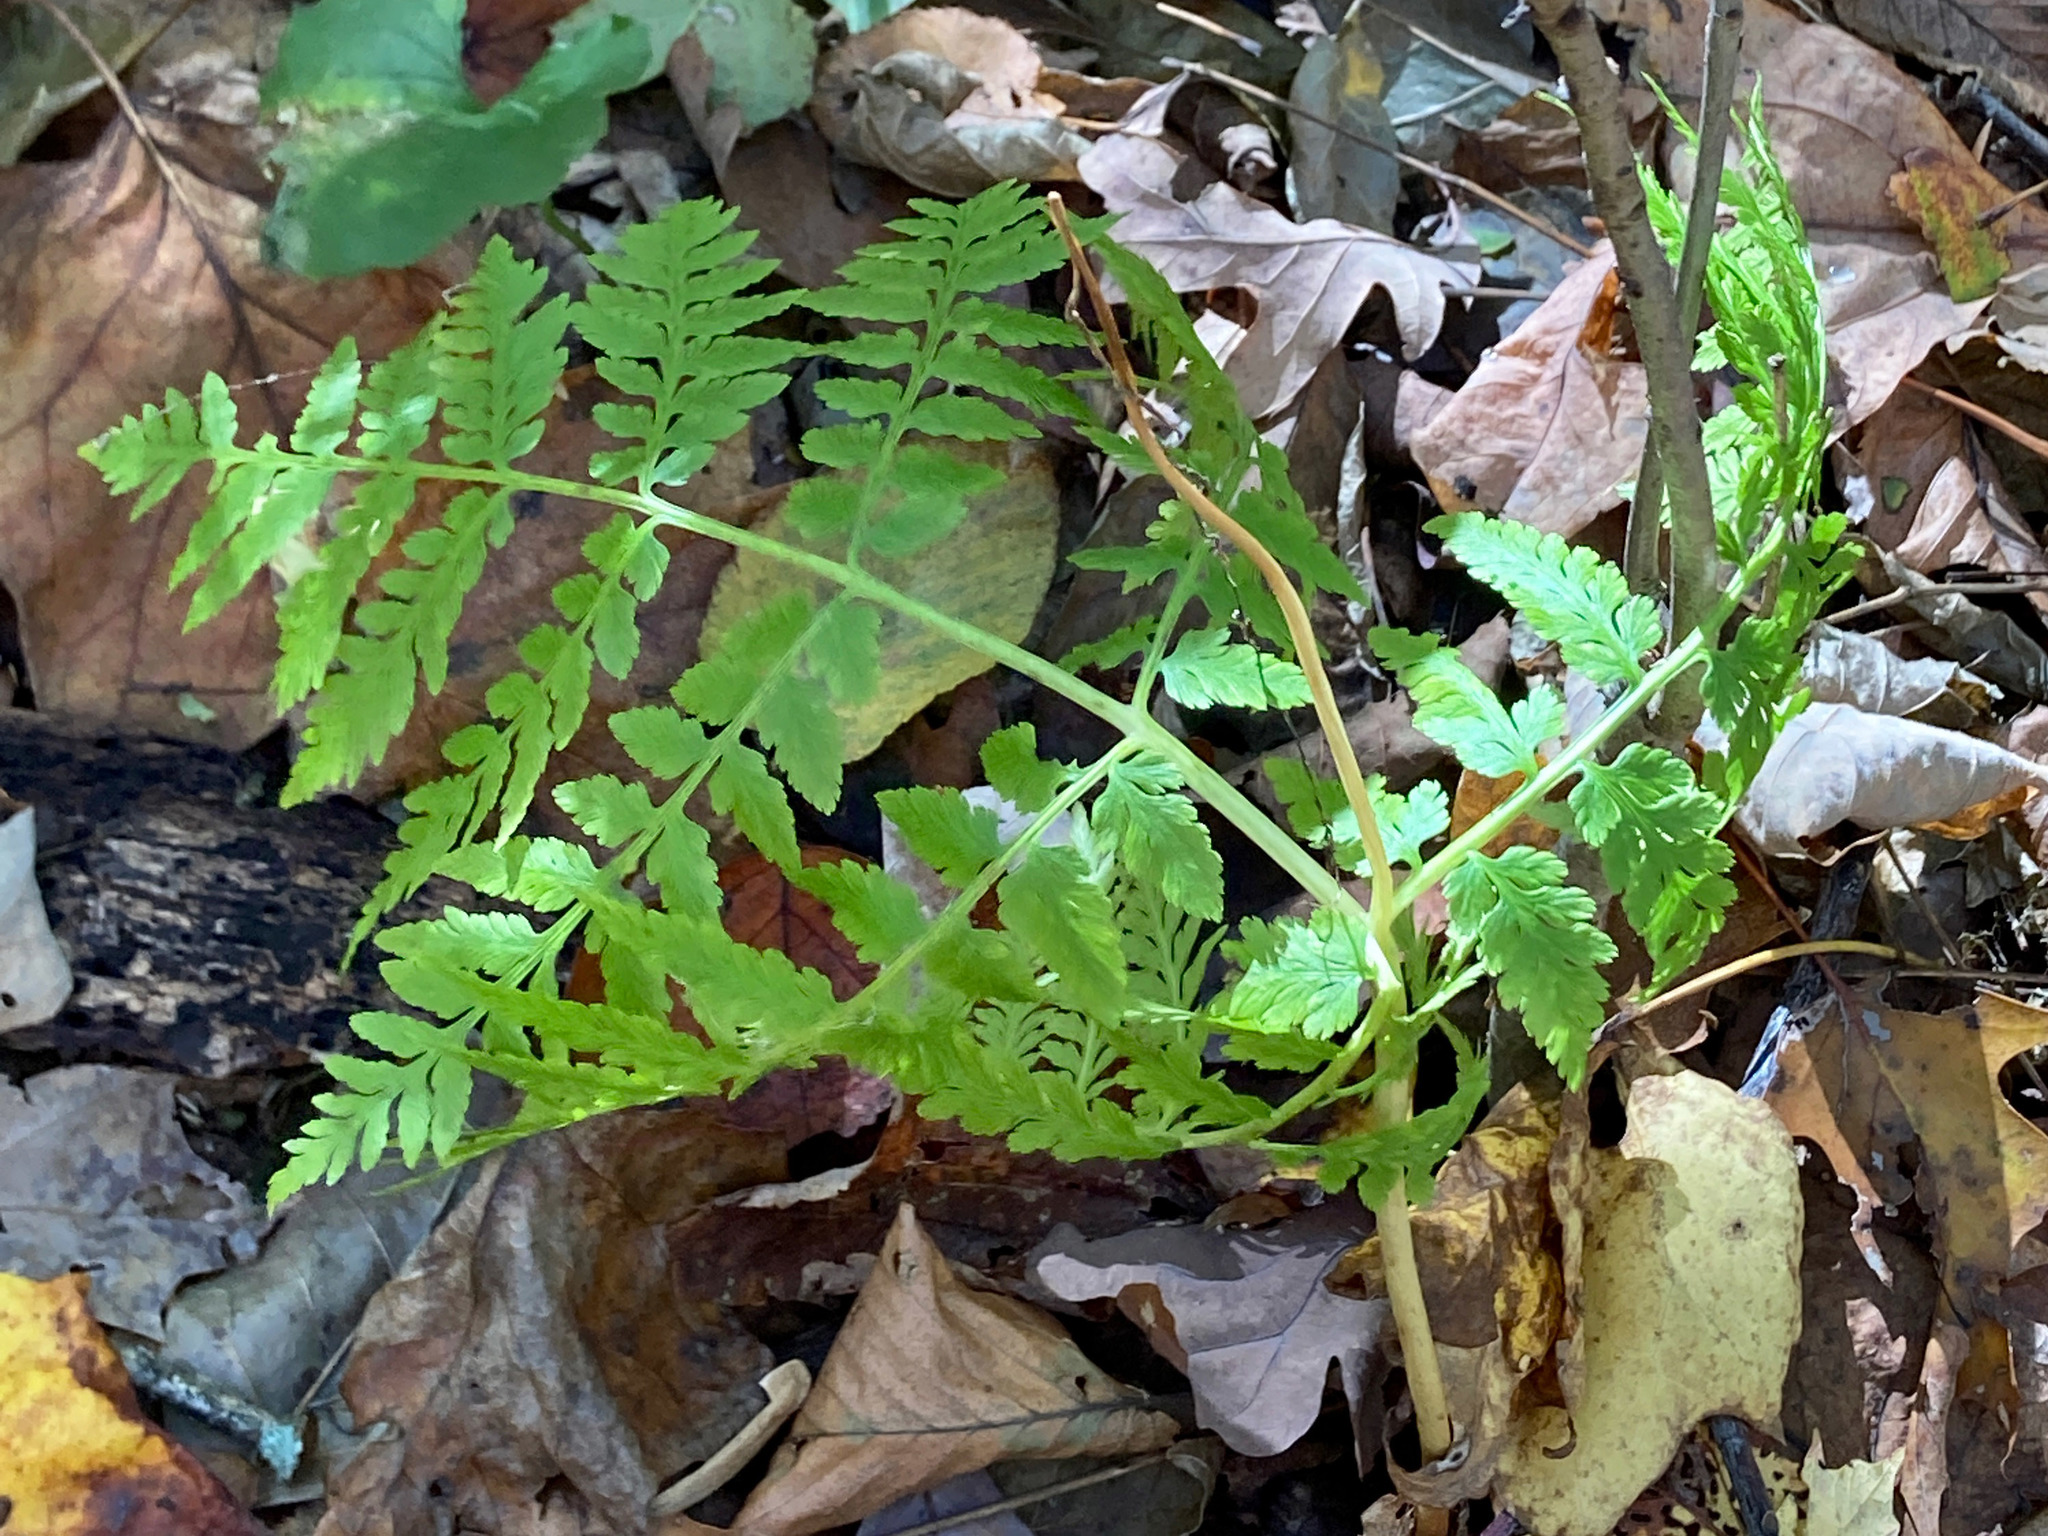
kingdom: Plantae
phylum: Tracheophyta
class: Polypodiopsida
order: Ophioglossales
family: Ophioglossaceae
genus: Botrypus
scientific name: Botrypus virginianus
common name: Common grapefern
